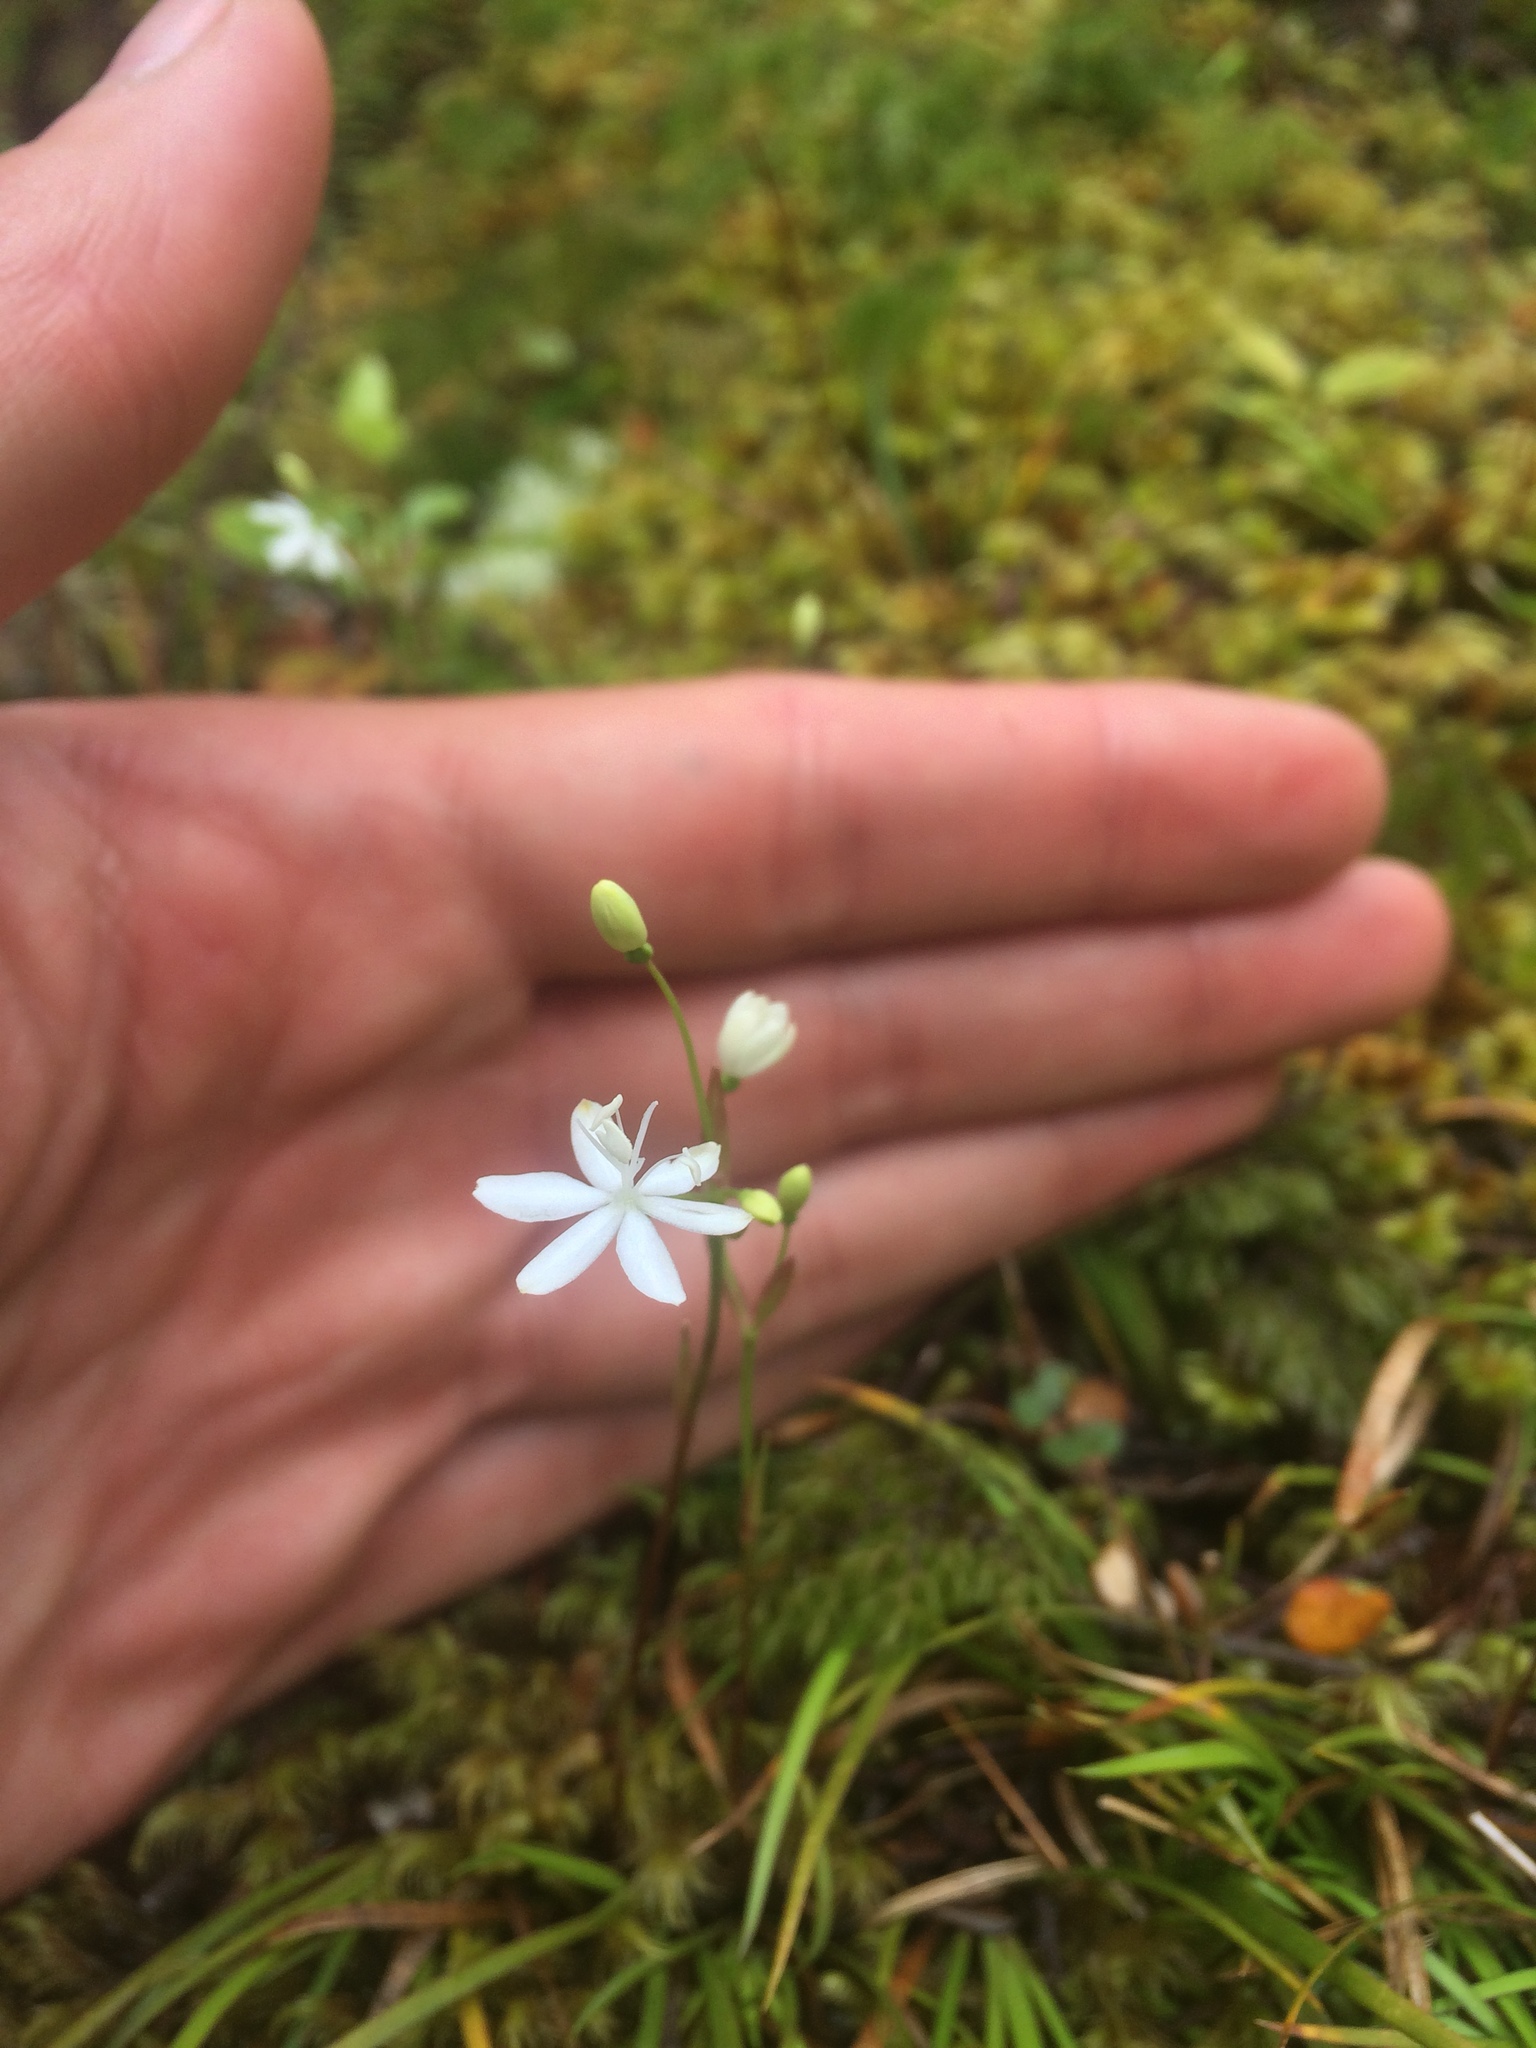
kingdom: Plantae
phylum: Tracheophyta
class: Liliopsida
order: Asparagales
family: Iridaceae
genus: Libertia
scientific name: Libertia micrantha
